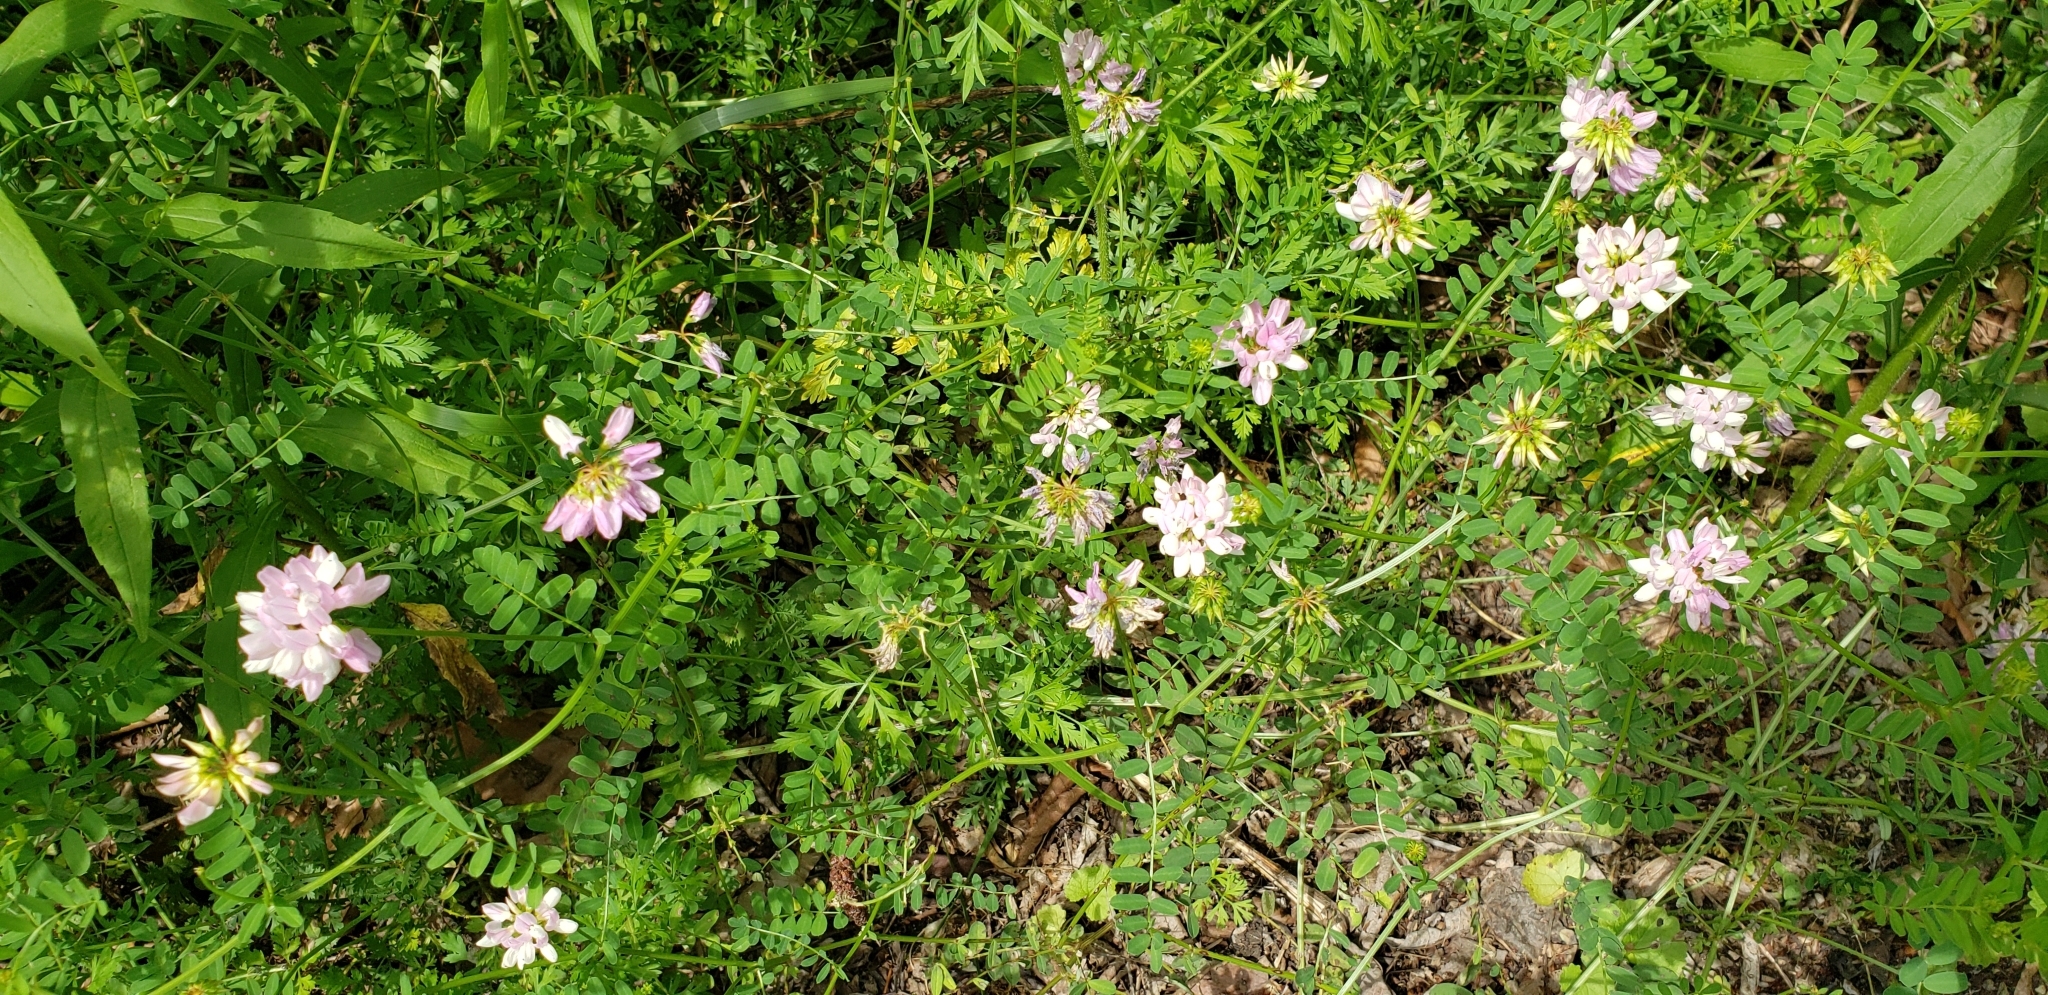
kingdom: Plantae
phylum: Tracheophyta
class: Magnoliopsida
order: Fabales
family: Fabaceae
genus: Coronilla
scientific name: Coronilla varia
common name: Crownvetch
